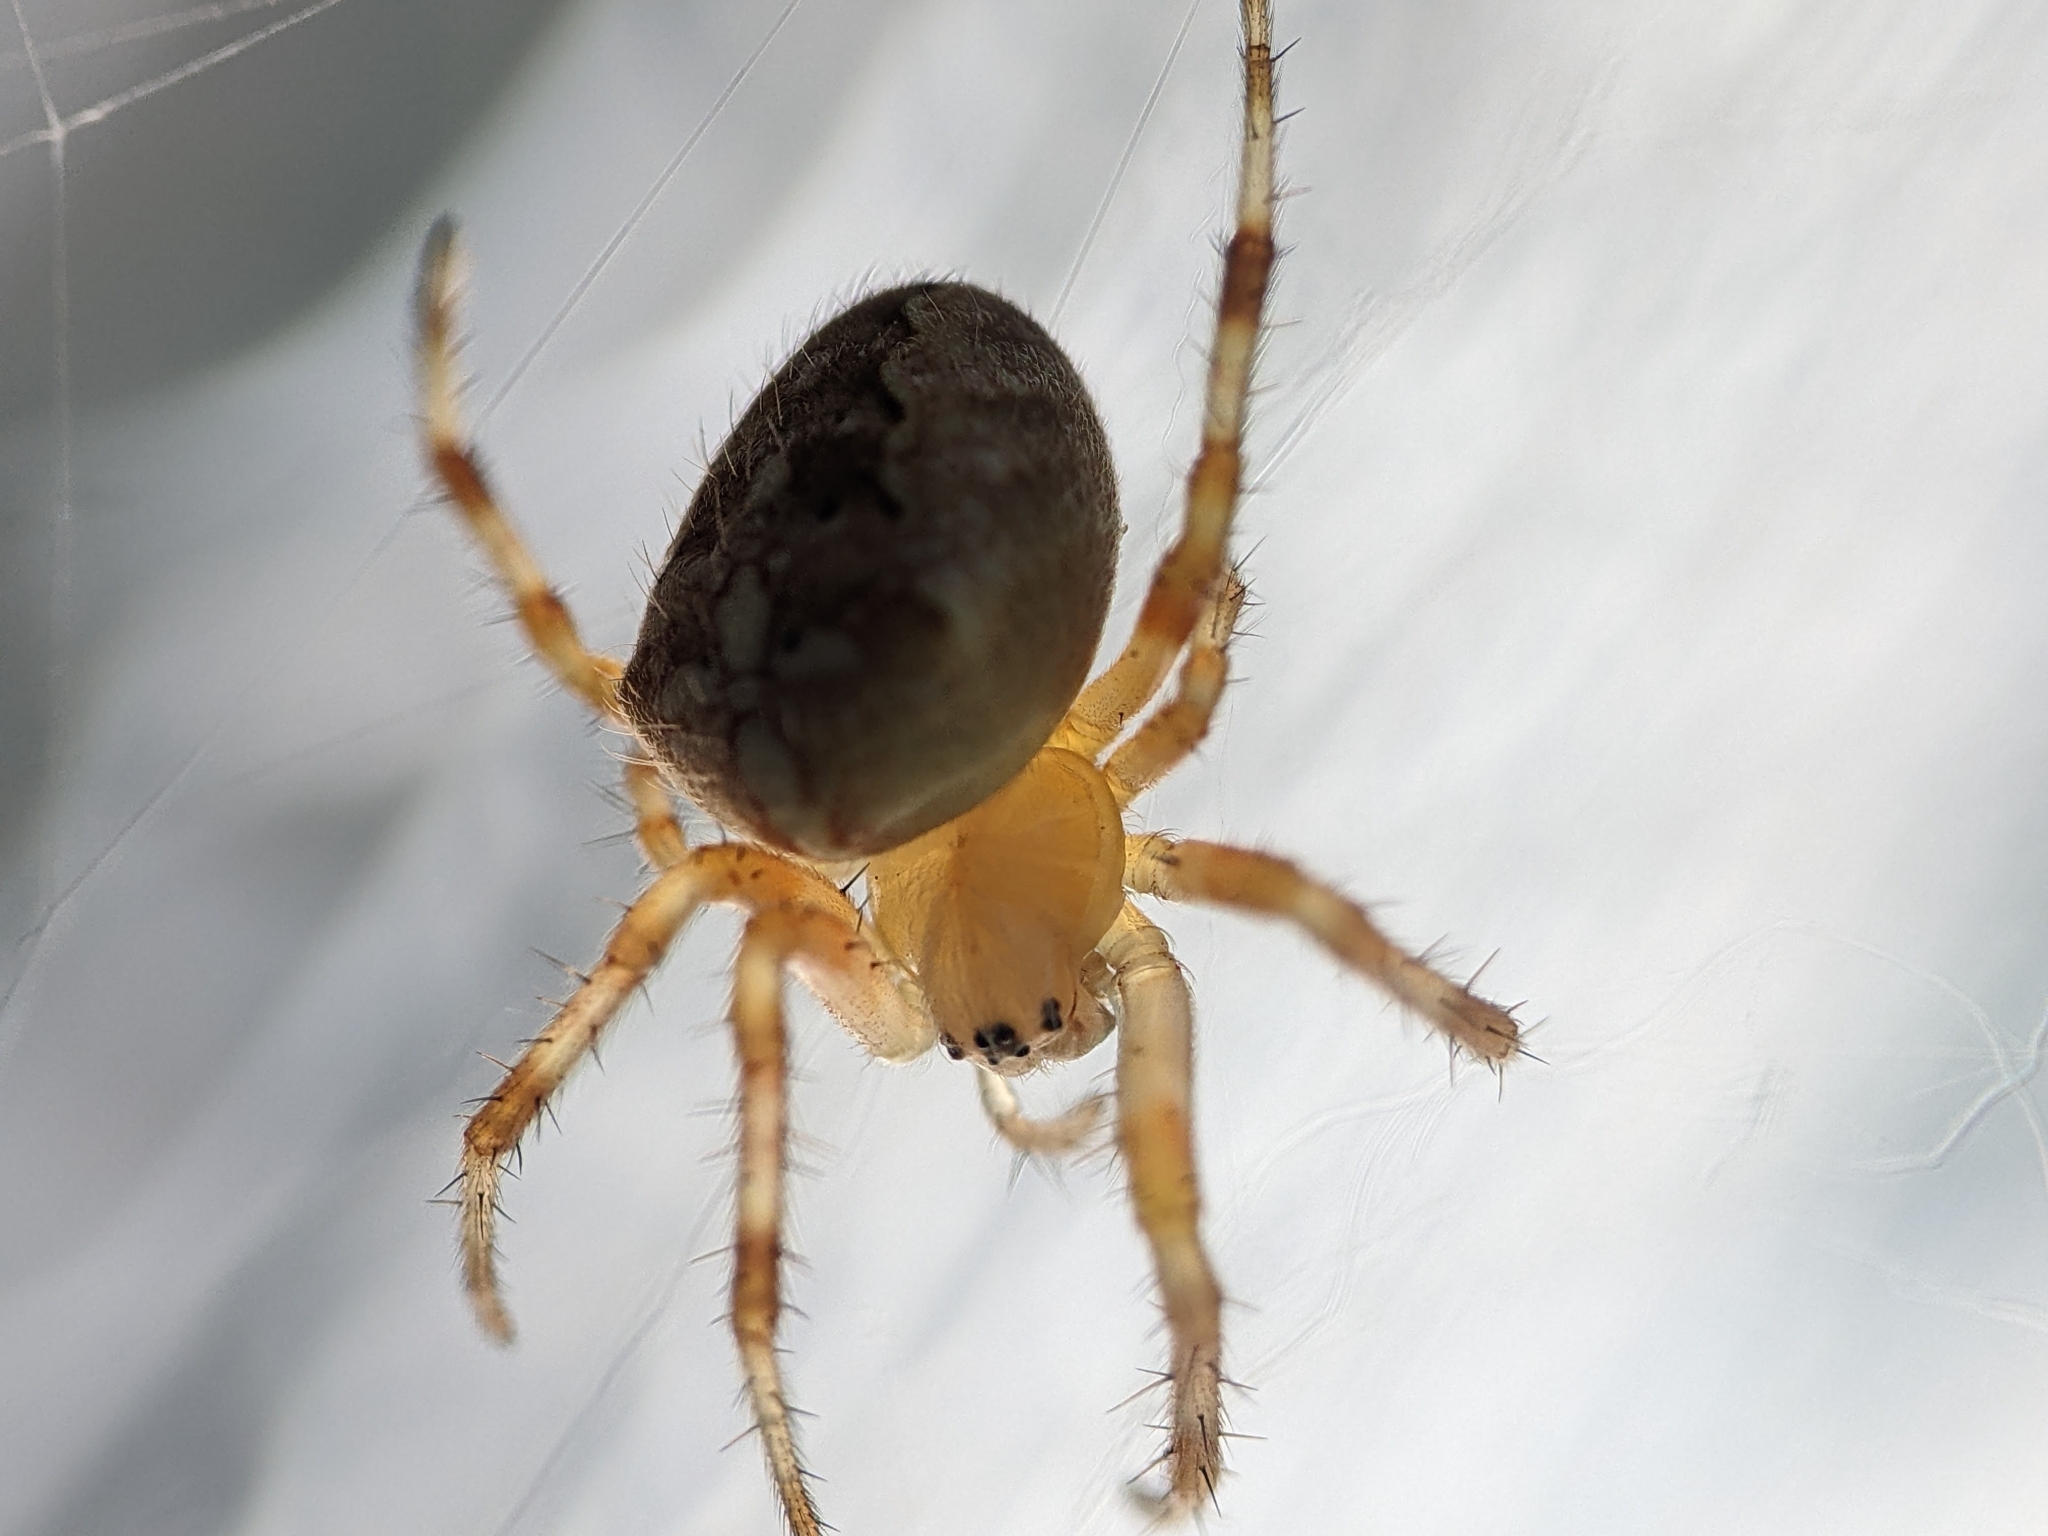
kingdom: Animalia
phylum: Arthropoda
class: Arachnida
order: Araneae
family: Araneidae
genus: Araneus
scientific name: Araneus diadematus
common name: Cross orbweaver
